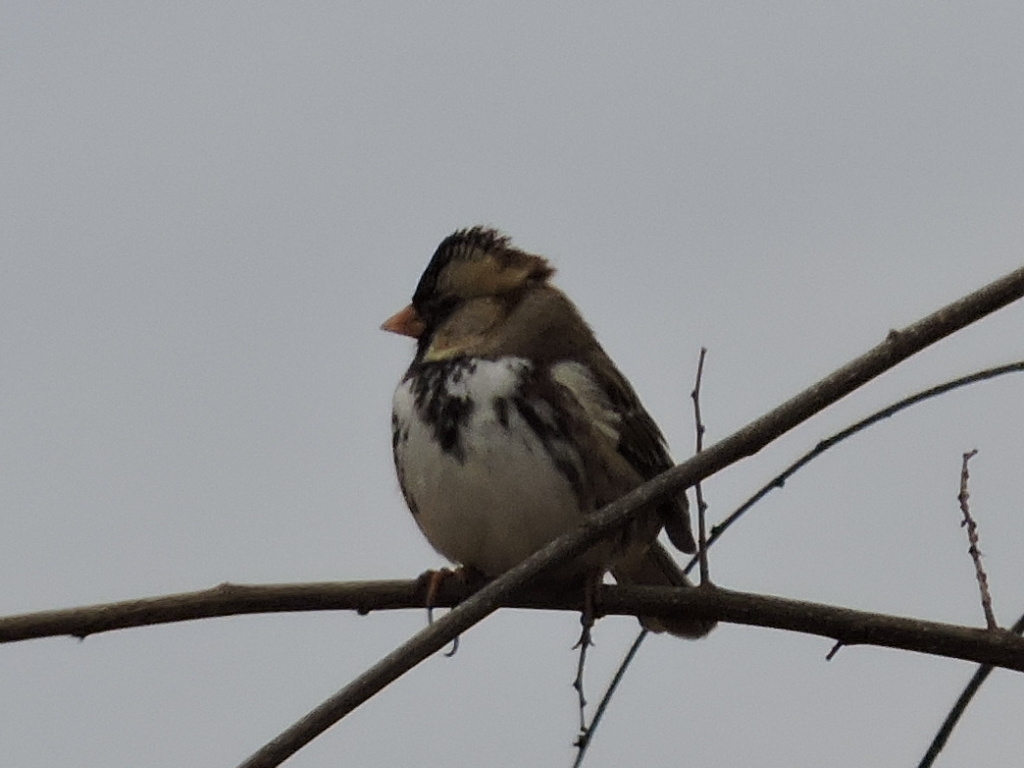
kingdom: Animalia
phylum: Chordata
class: Aves
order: Passeriformes
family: Passerellidae
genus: Zonotrichia
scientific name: Zonotrichia querula
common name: Harris's sparrow
